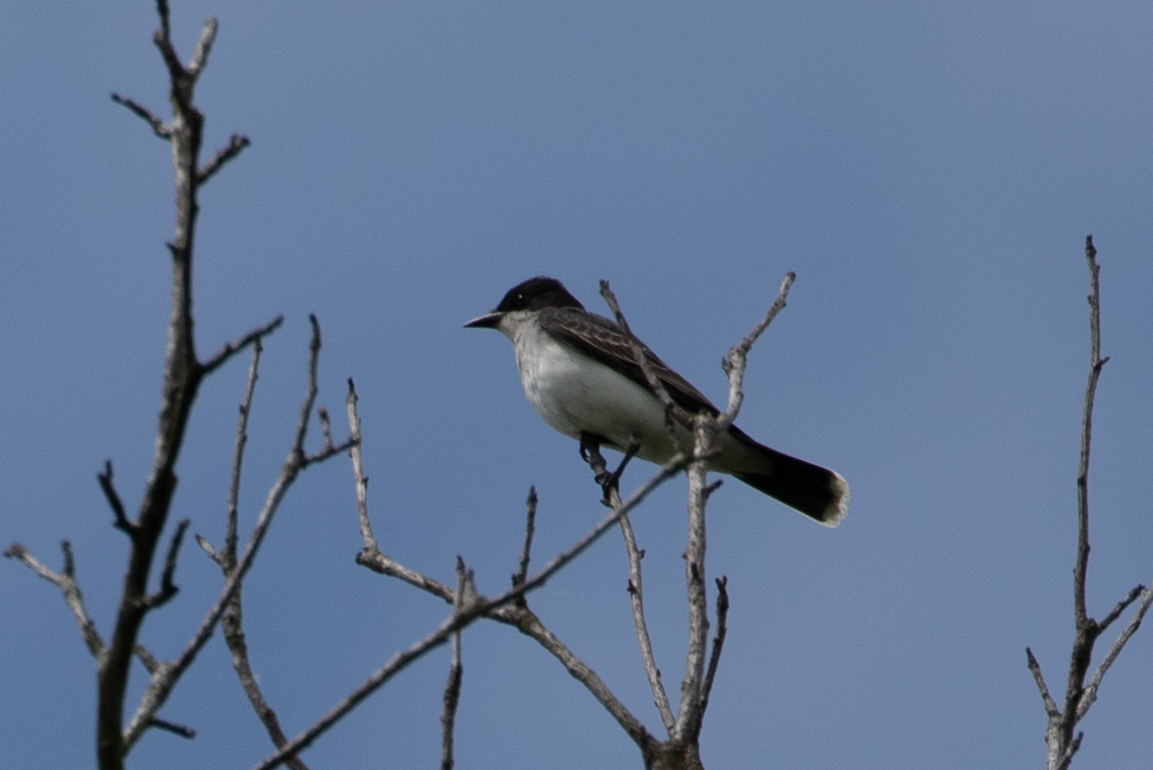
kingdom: Animalia
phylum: Chordata
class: Aves
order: Passeriformes
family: Tyrannidae
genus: Tyrannus
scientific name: Tyrannus tyrannus
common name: Eastern kingbird
